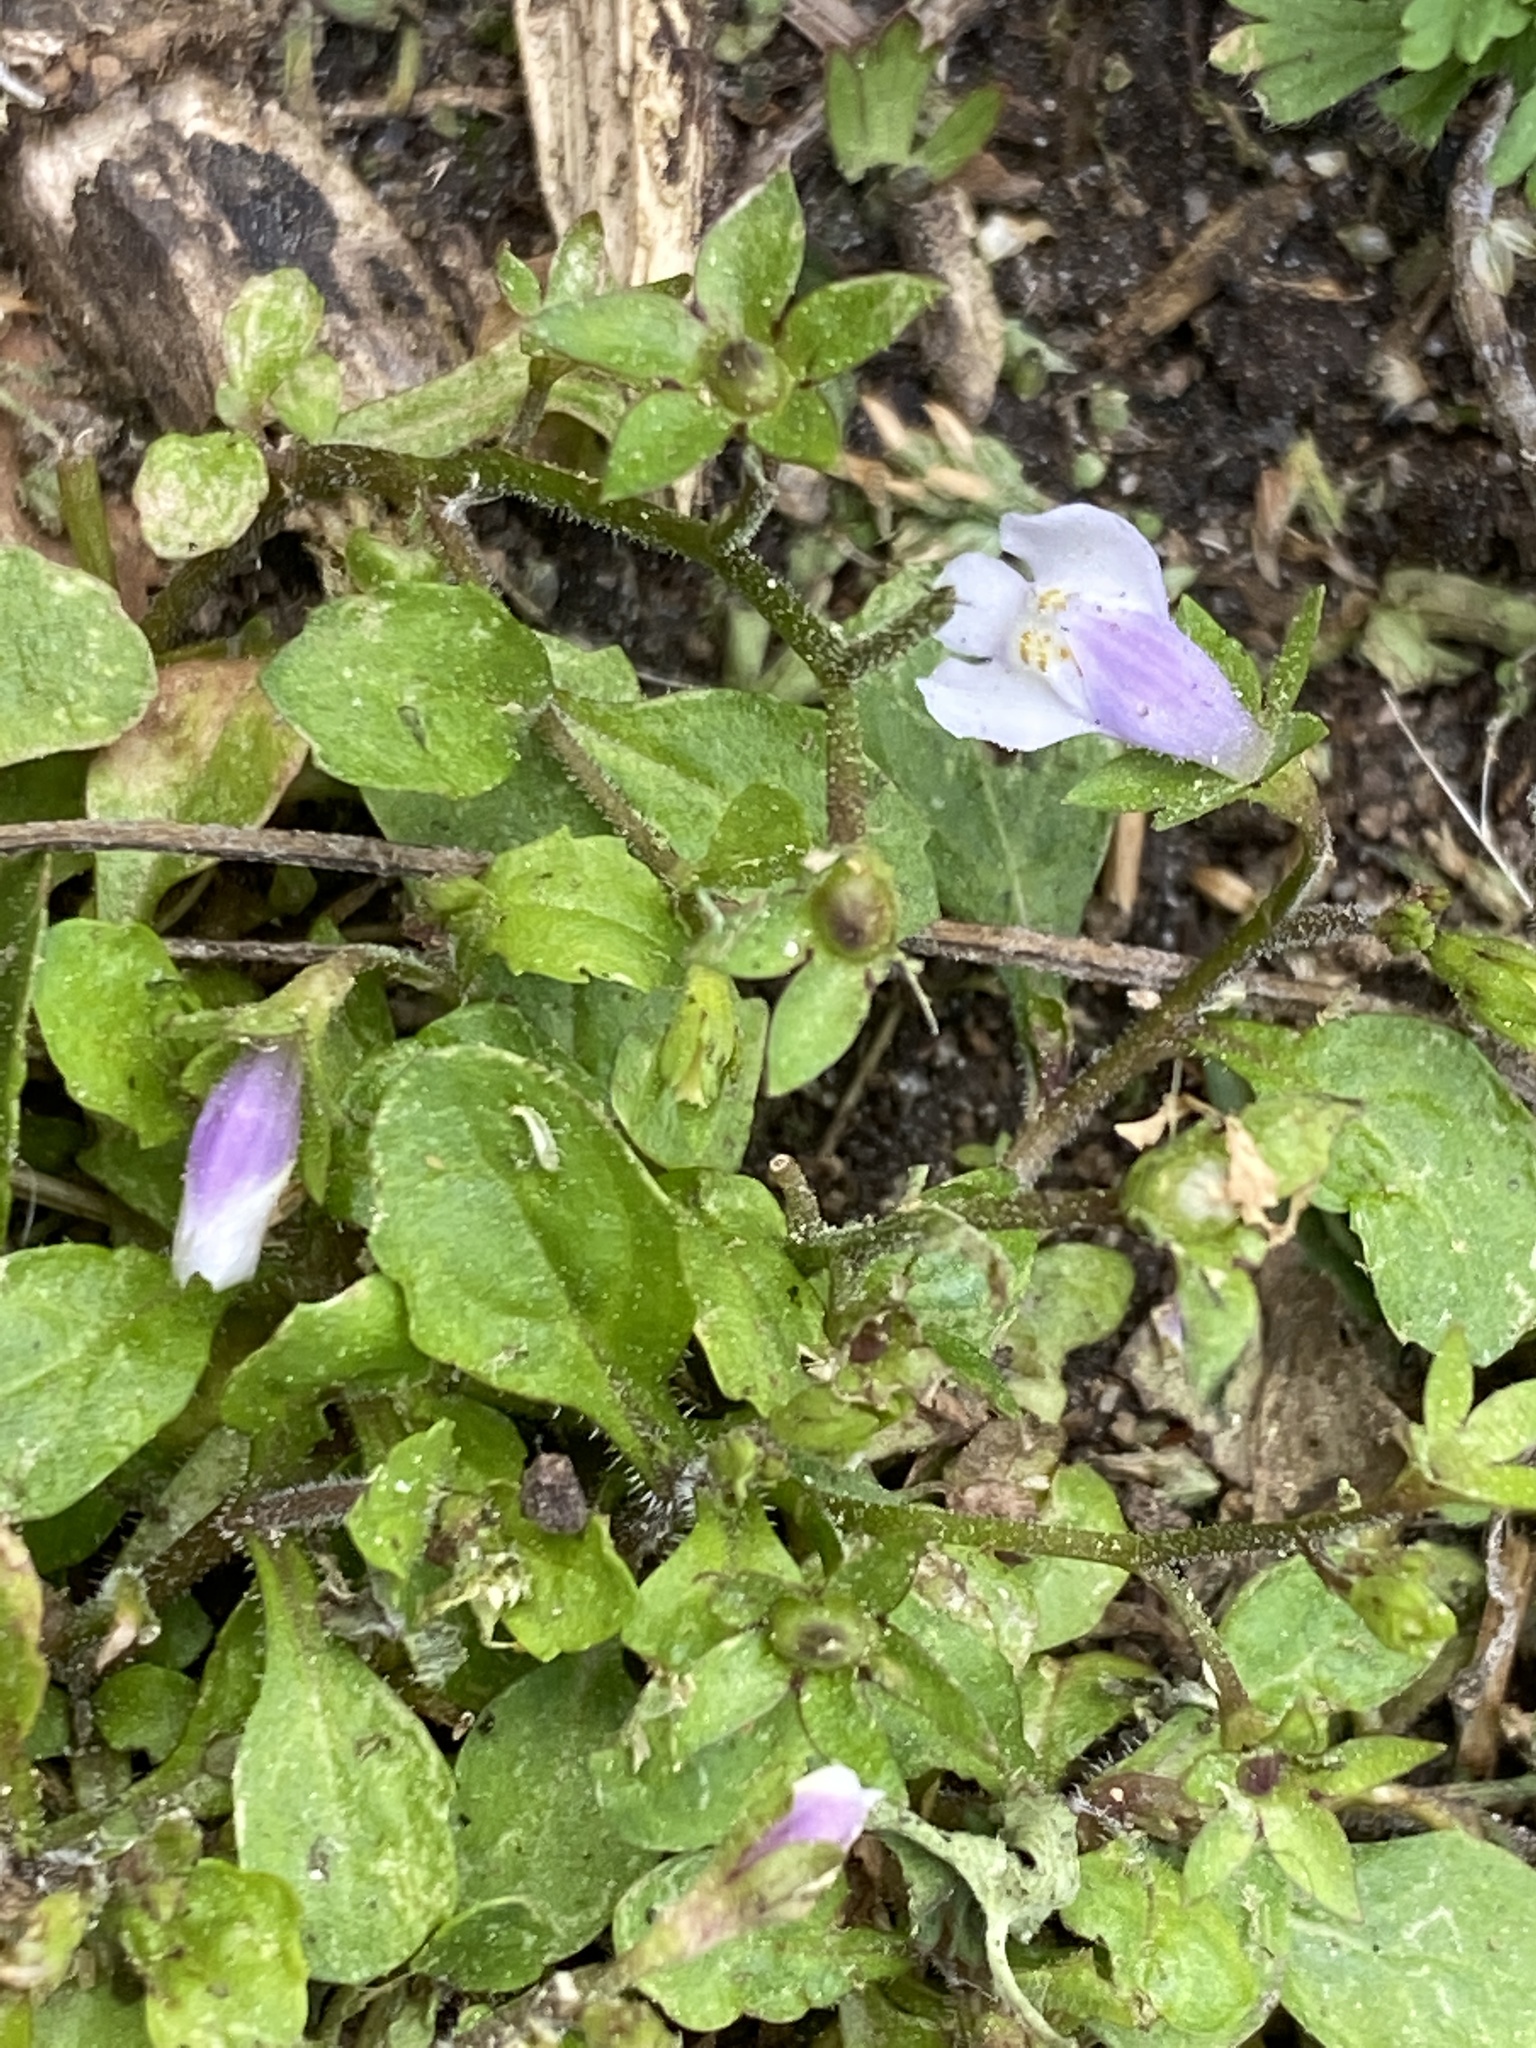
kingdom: Plantae
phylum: Tracheophyta
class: Magnoliopsida
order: Lamiales
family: Mazaceae
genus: Mazus
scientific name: Mazus pumilus
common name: Japanese mazus
